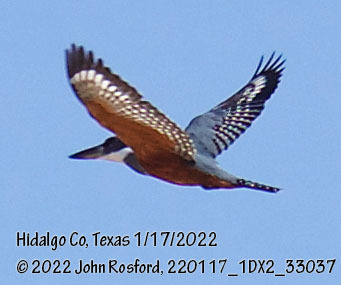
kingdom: Animalia
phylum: Chordata
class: Aves
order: Coraciiformes
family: Alcedinidae
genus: Megaceryle
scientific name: Megaceryle torquata
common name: Ringed kingfisher
